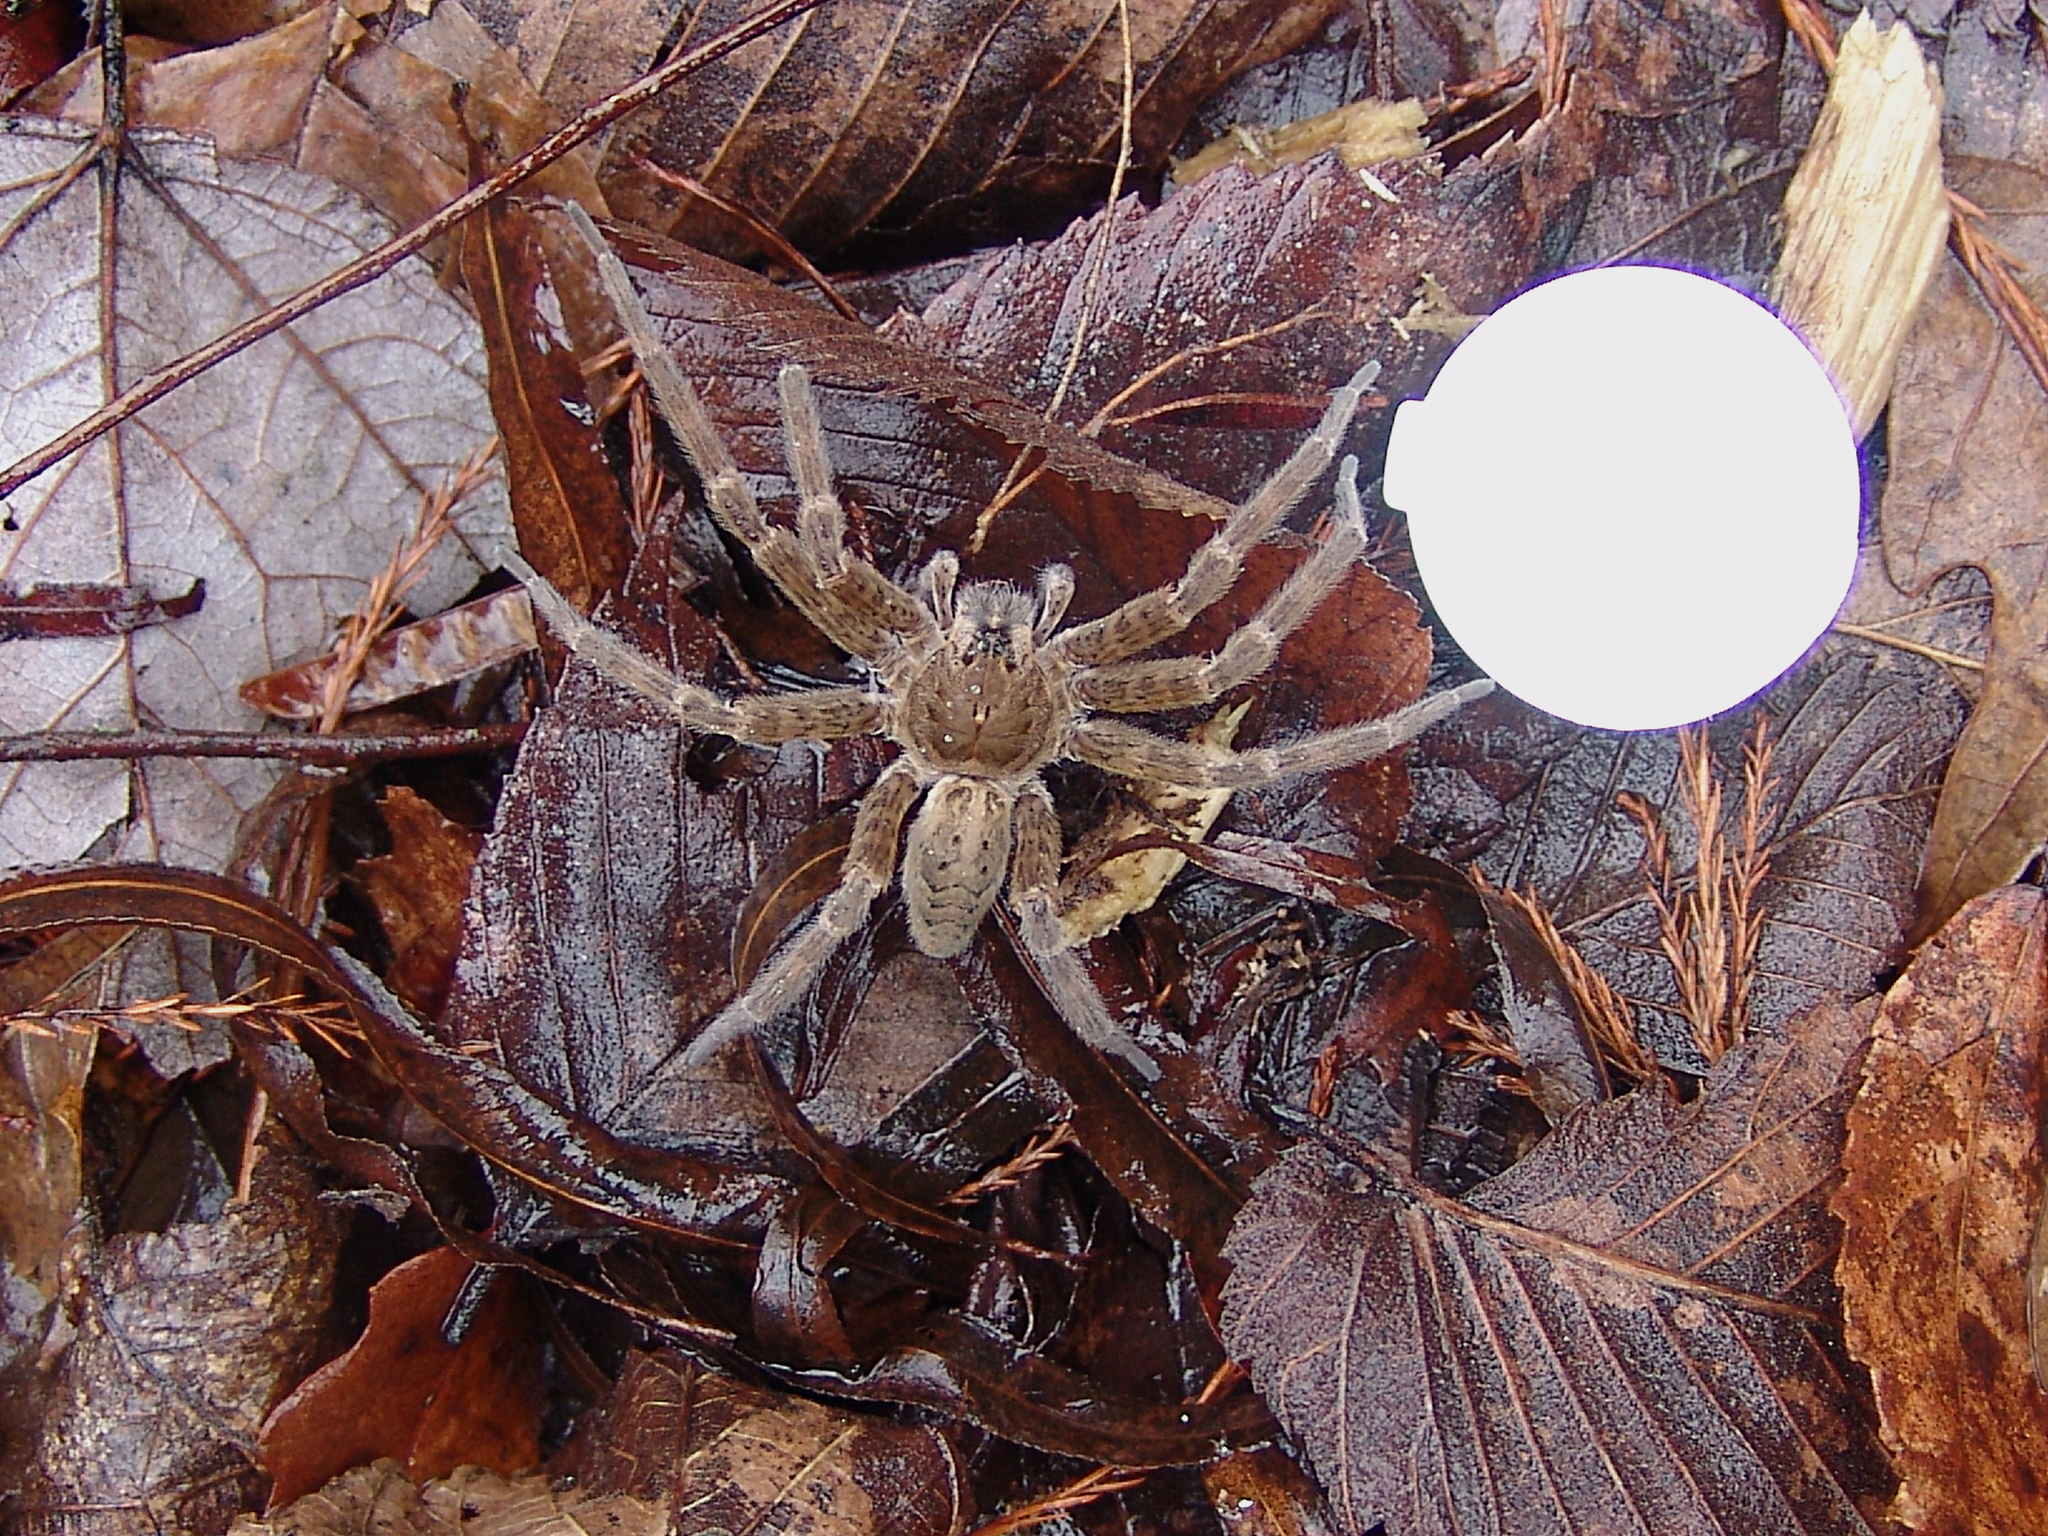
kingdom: Animalia
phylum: Arthropoda
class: Arachnida
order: Araneae
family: Pisauridae
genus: Dolomedes
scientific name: Dolomedes tenebrosus
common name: Dark fishing spider
